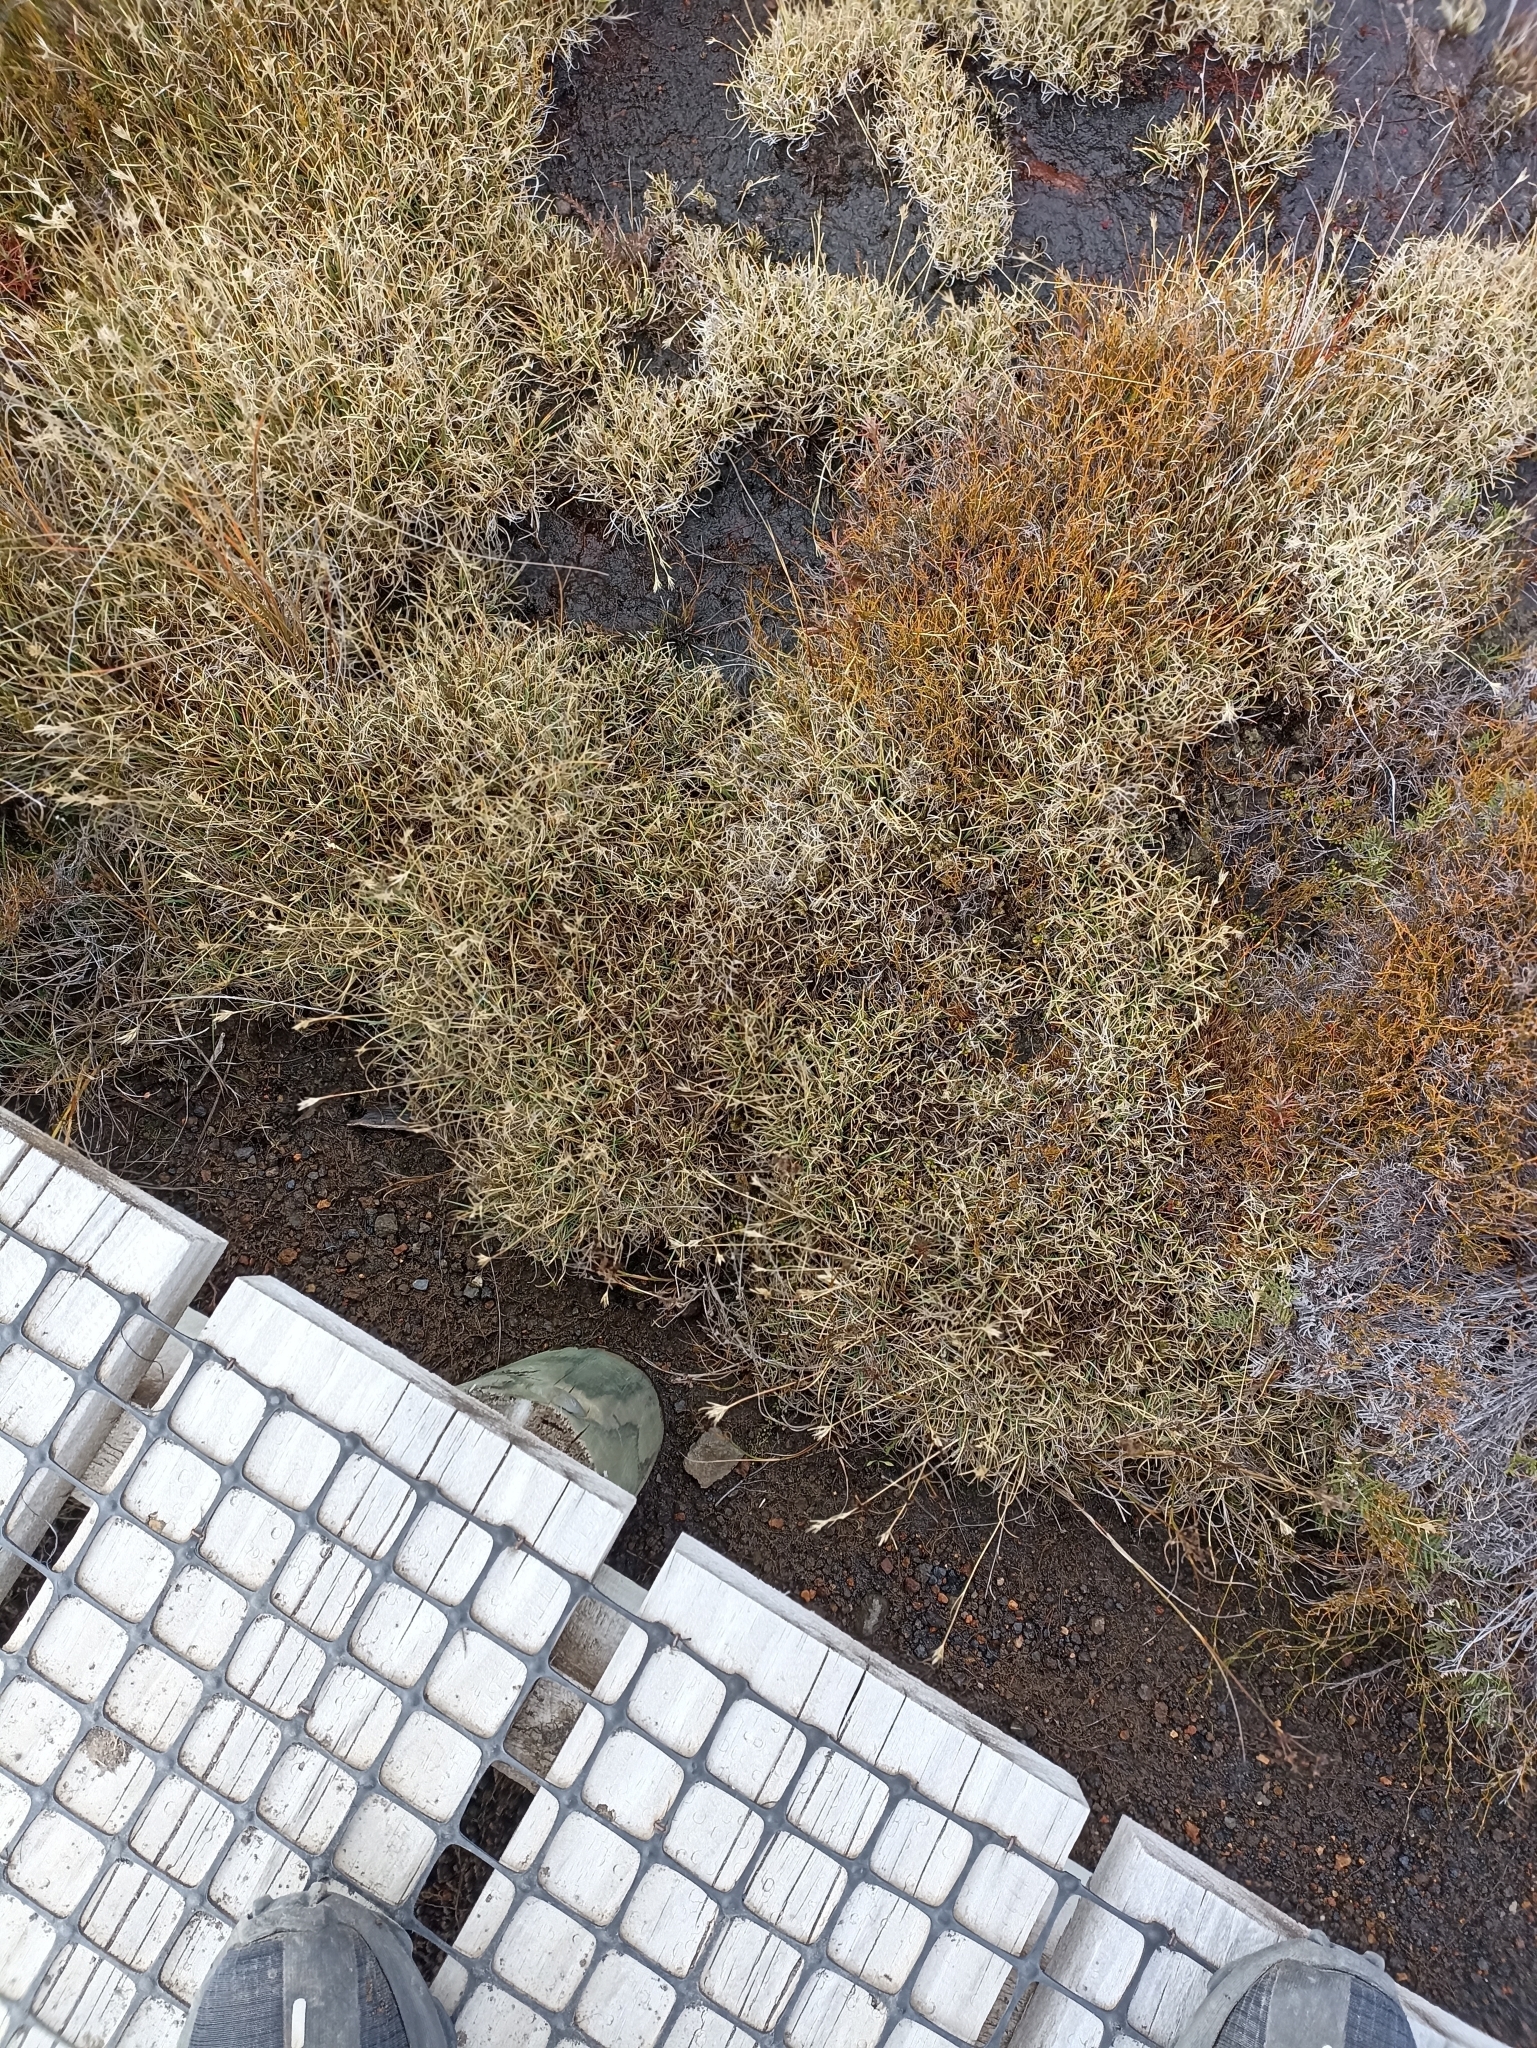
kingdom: Plantae
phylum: Tracheophyta
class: Liliopsida
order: Poales
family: Cyperaceae
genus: Carpha
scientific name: Carpha alpina
